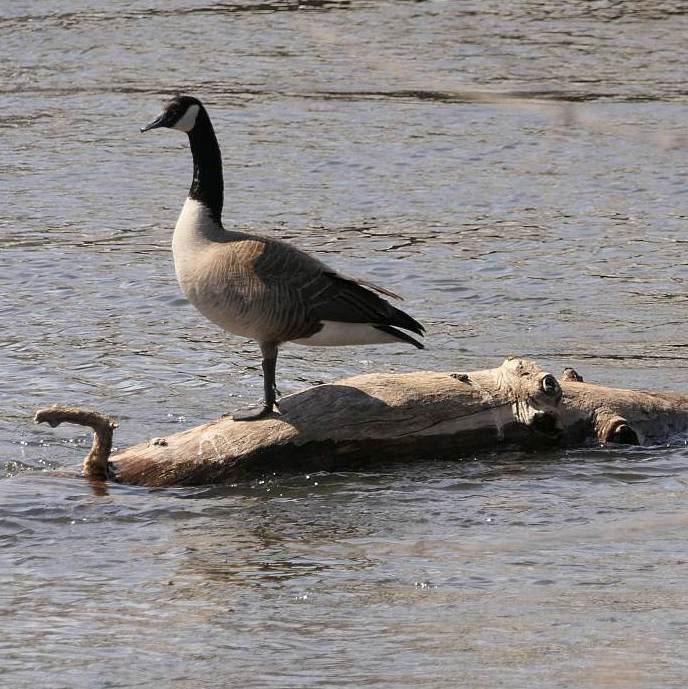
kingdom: Animalia
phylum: Chordata
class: Aves
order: Anseriformes
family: Anatidae
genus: Branta
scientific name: Branta canadensis
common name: Canada goose
